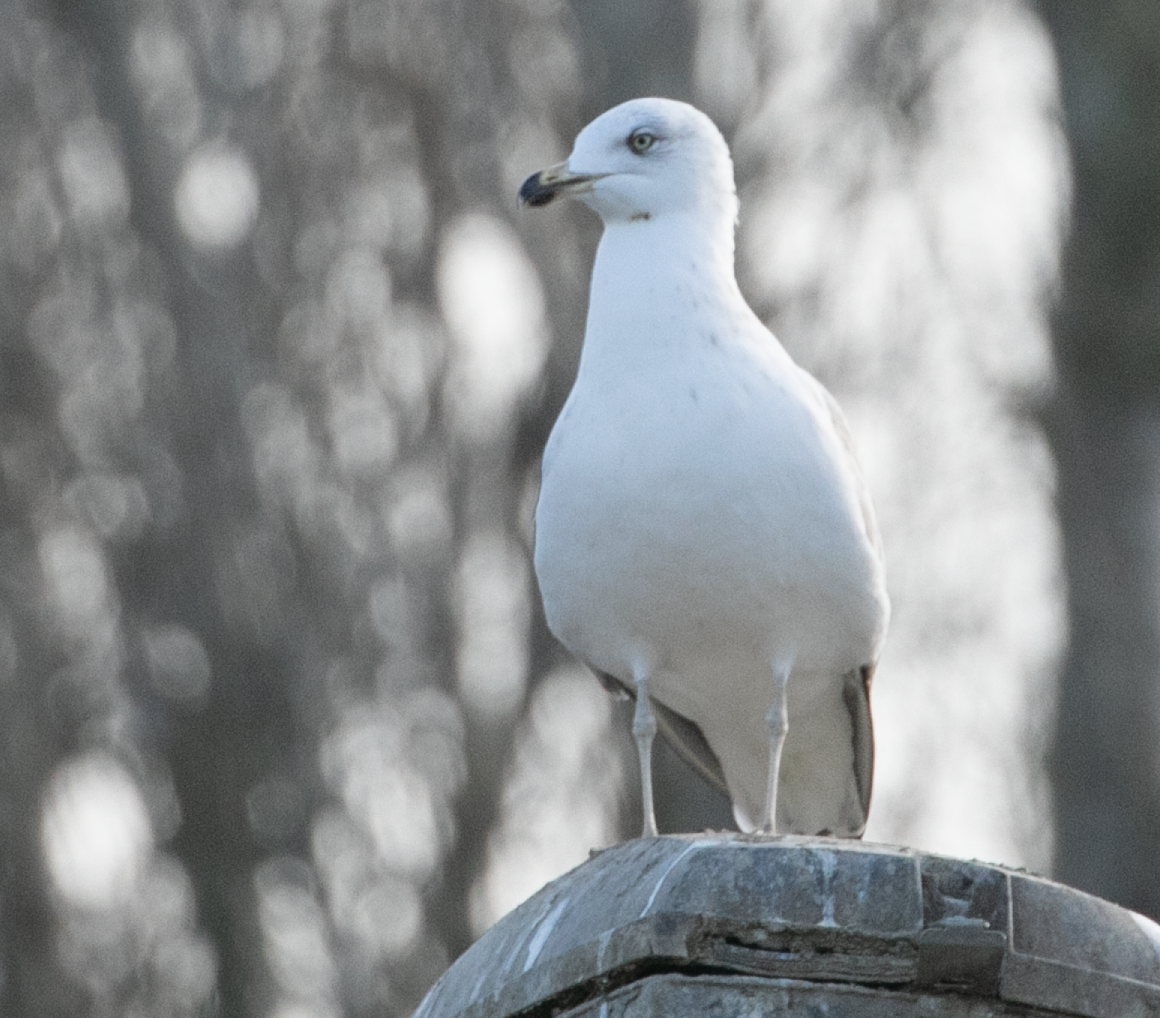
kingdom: Animalia
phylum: Chordata
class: Aves
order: Charadriiformes
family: Laridae
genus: Larus
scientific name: Larus michahellis
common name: Yellow-legged gull
